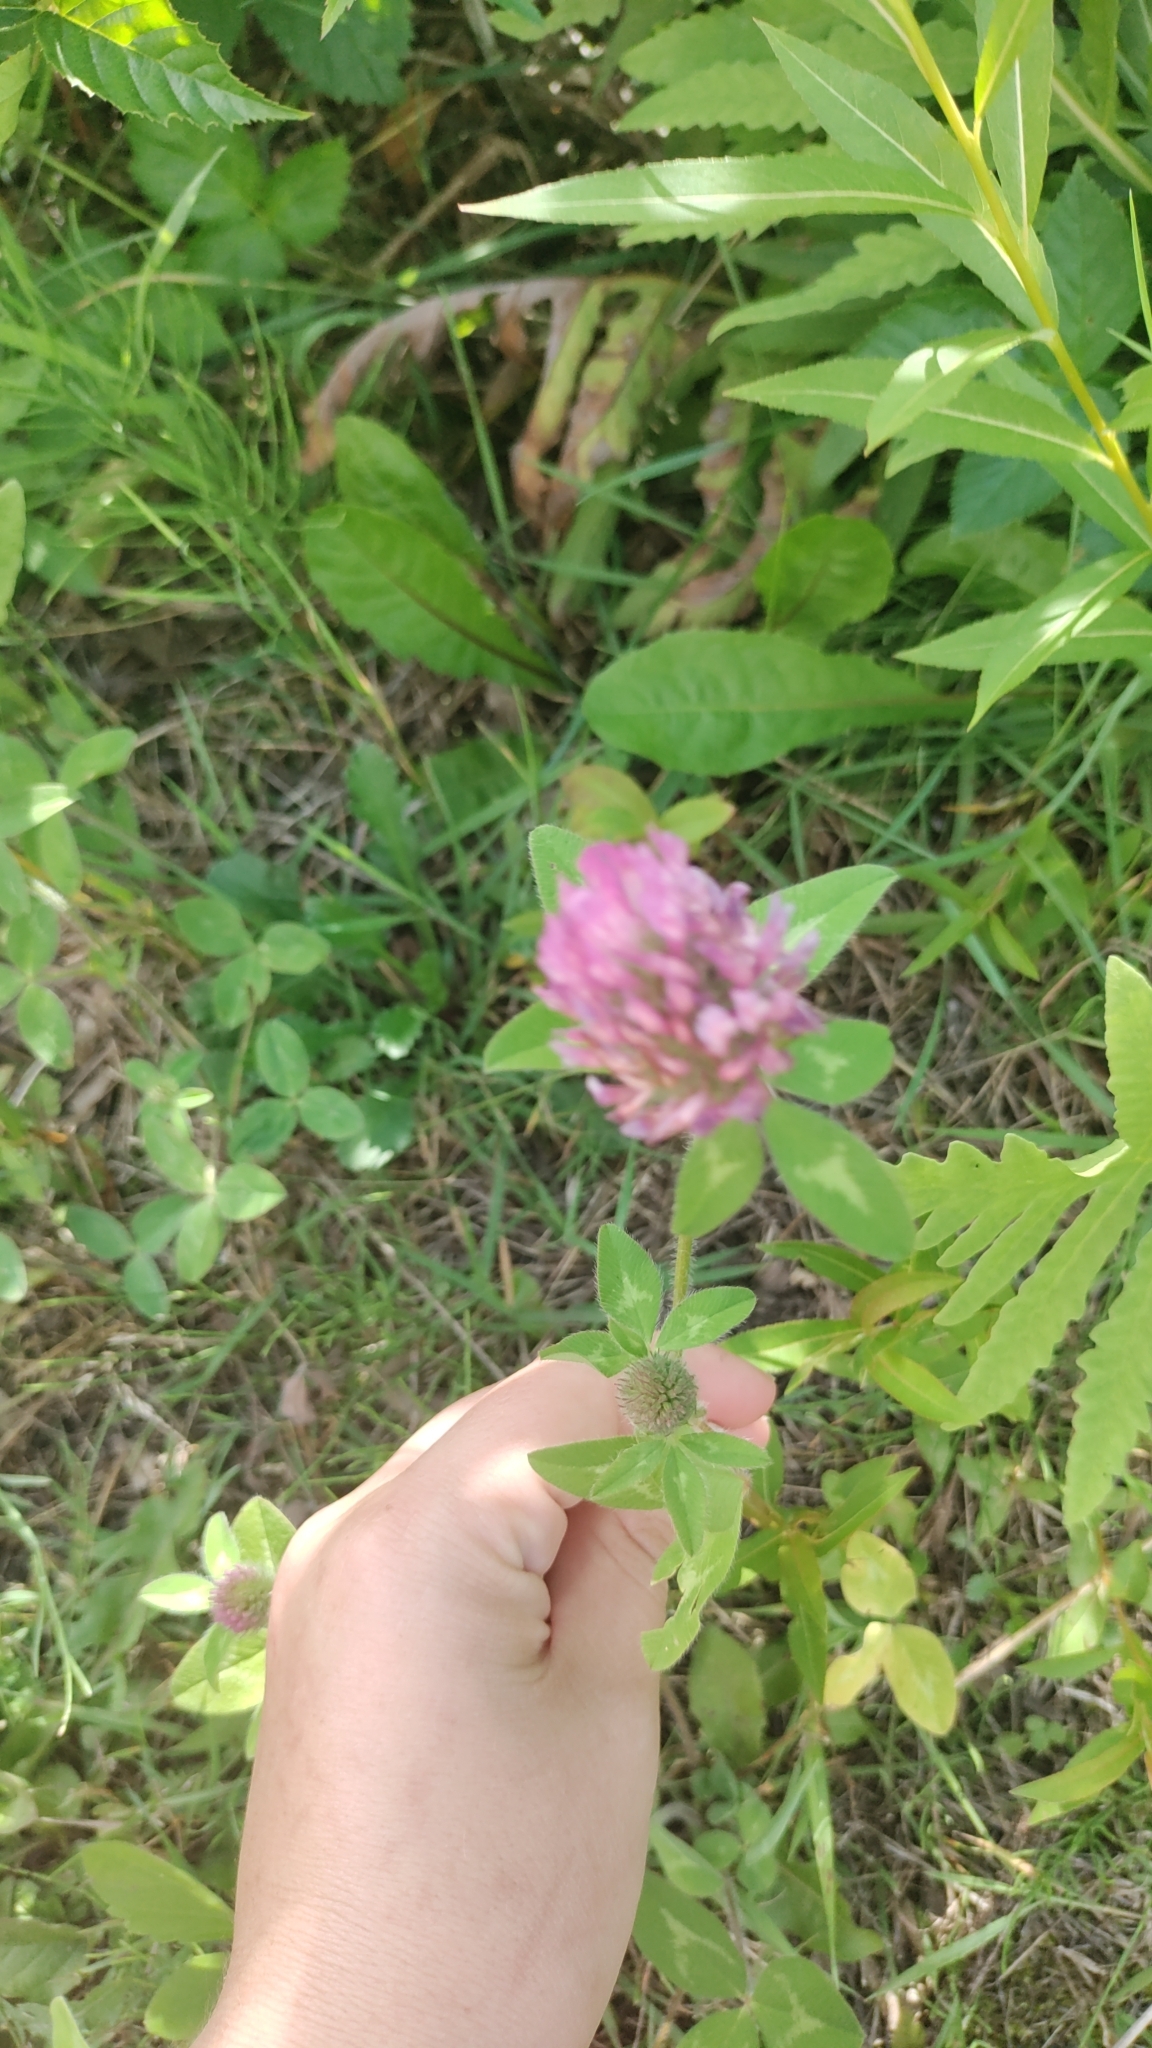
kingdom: Plantae
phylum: Tracheophyta
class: Magnoliopsida
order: Fabales
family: Fabaceae
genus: Trifolium
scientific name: Trifolium pratense
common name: Red clover
